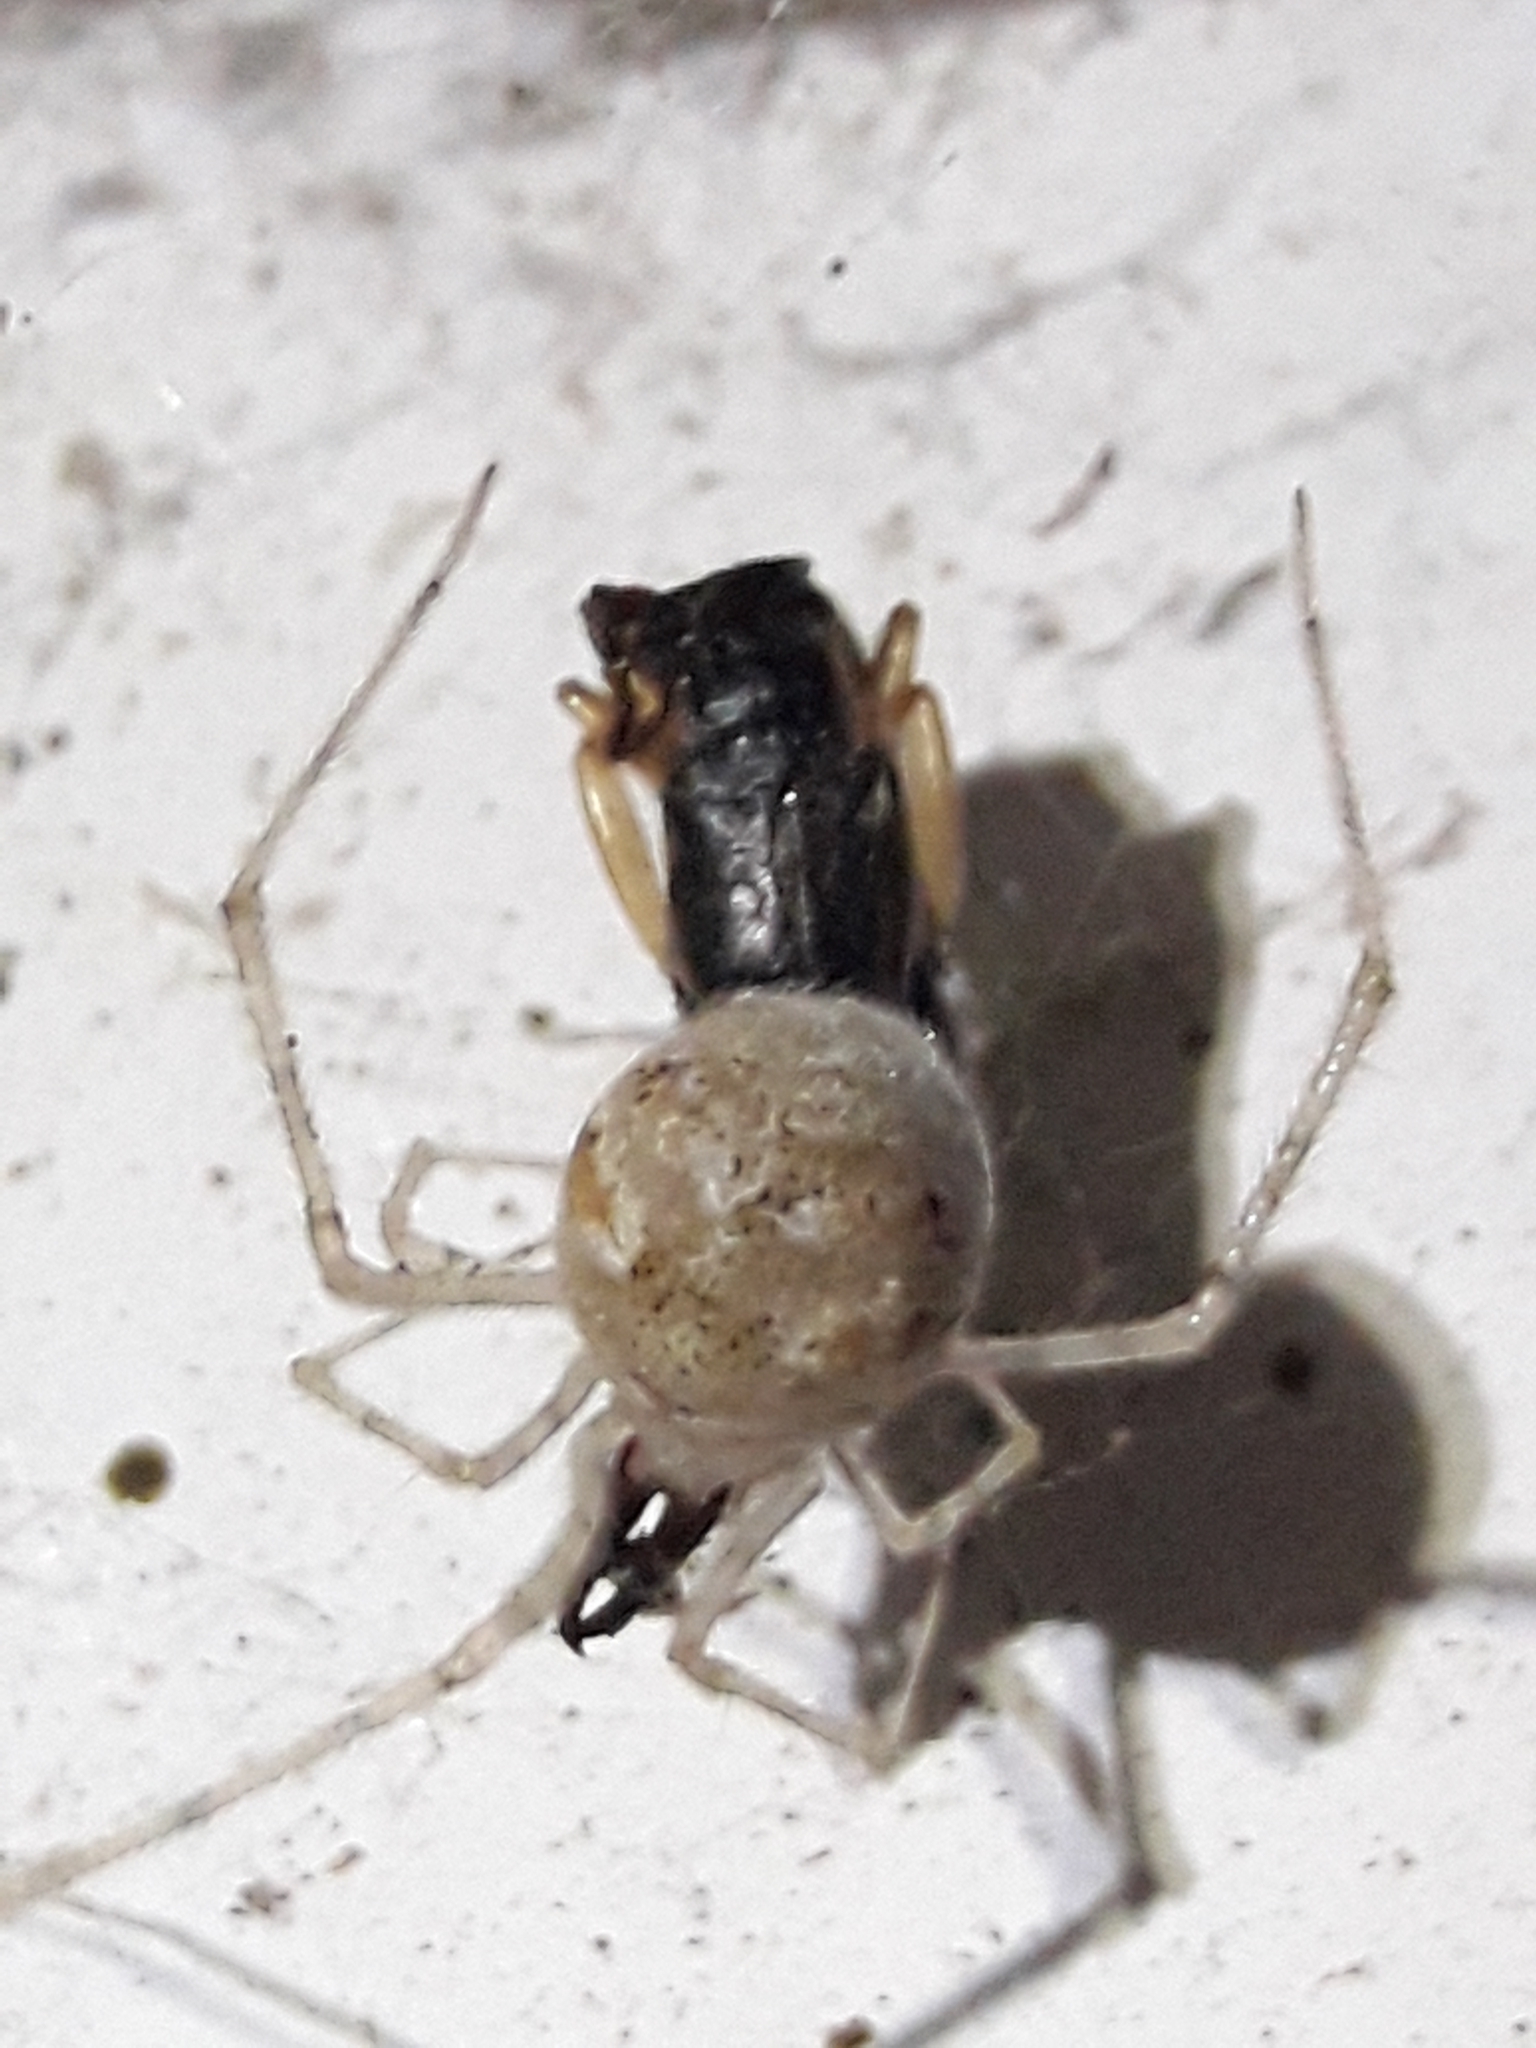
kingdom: Animalia
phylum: Arthropoda
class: Arachnida
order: Araneae
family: Theridiidae
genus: Cryptachaea
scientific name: Cryptachaea gigantipes
